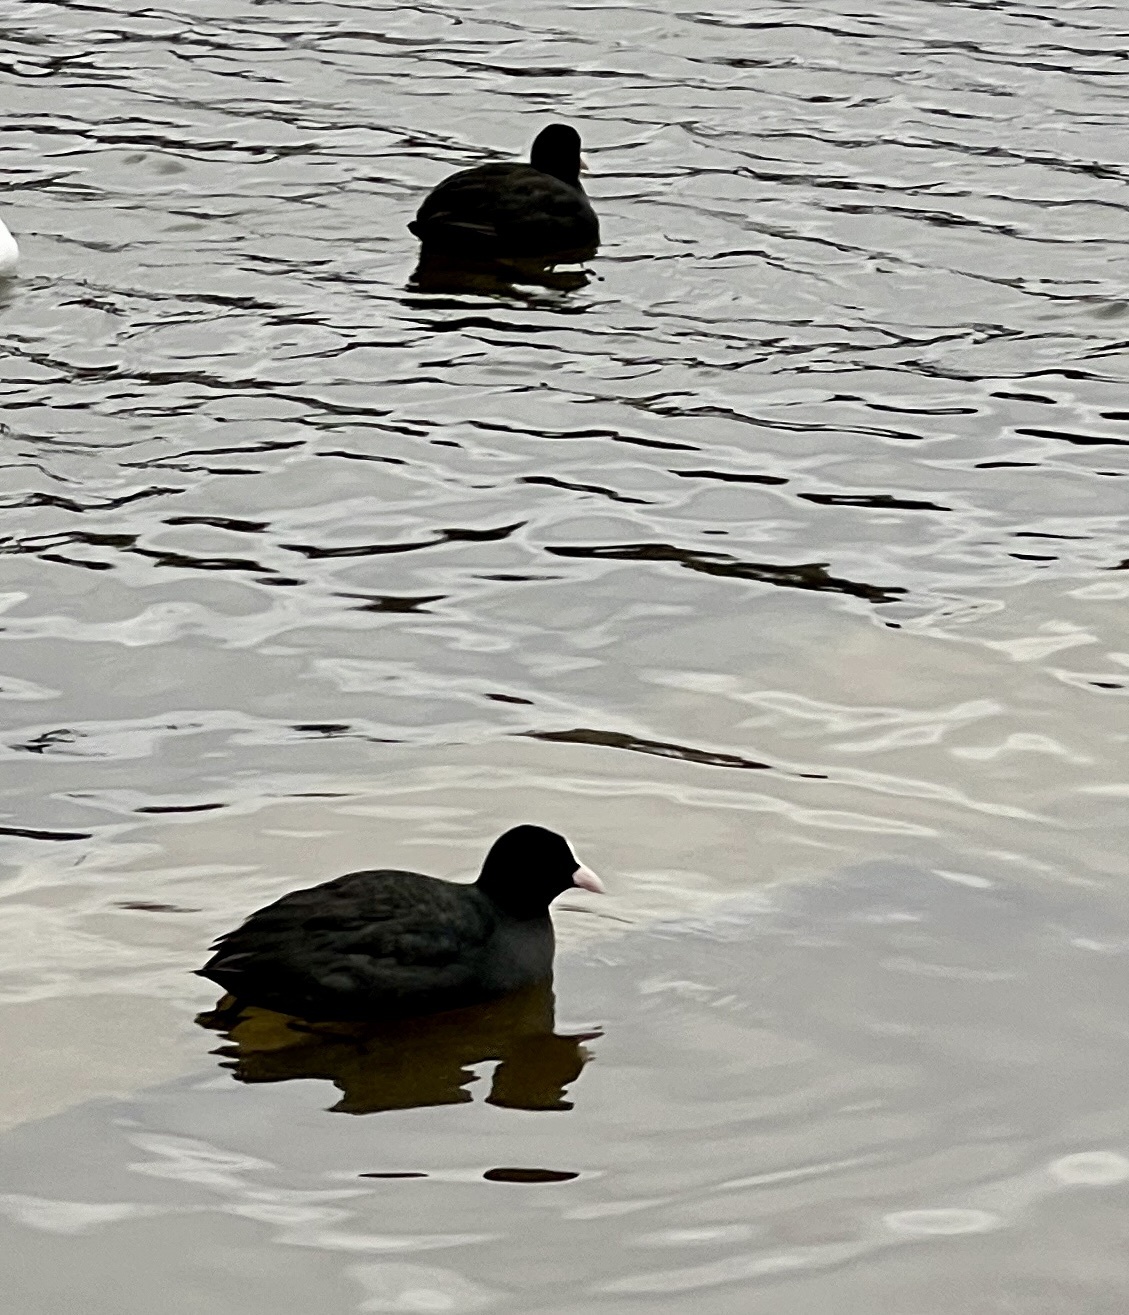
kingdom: Animalia
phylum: Chordata
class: Aves
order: Gruiformes
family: Rallidae
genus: Fulica
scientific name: Fulica atra
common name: Eurasian coot
